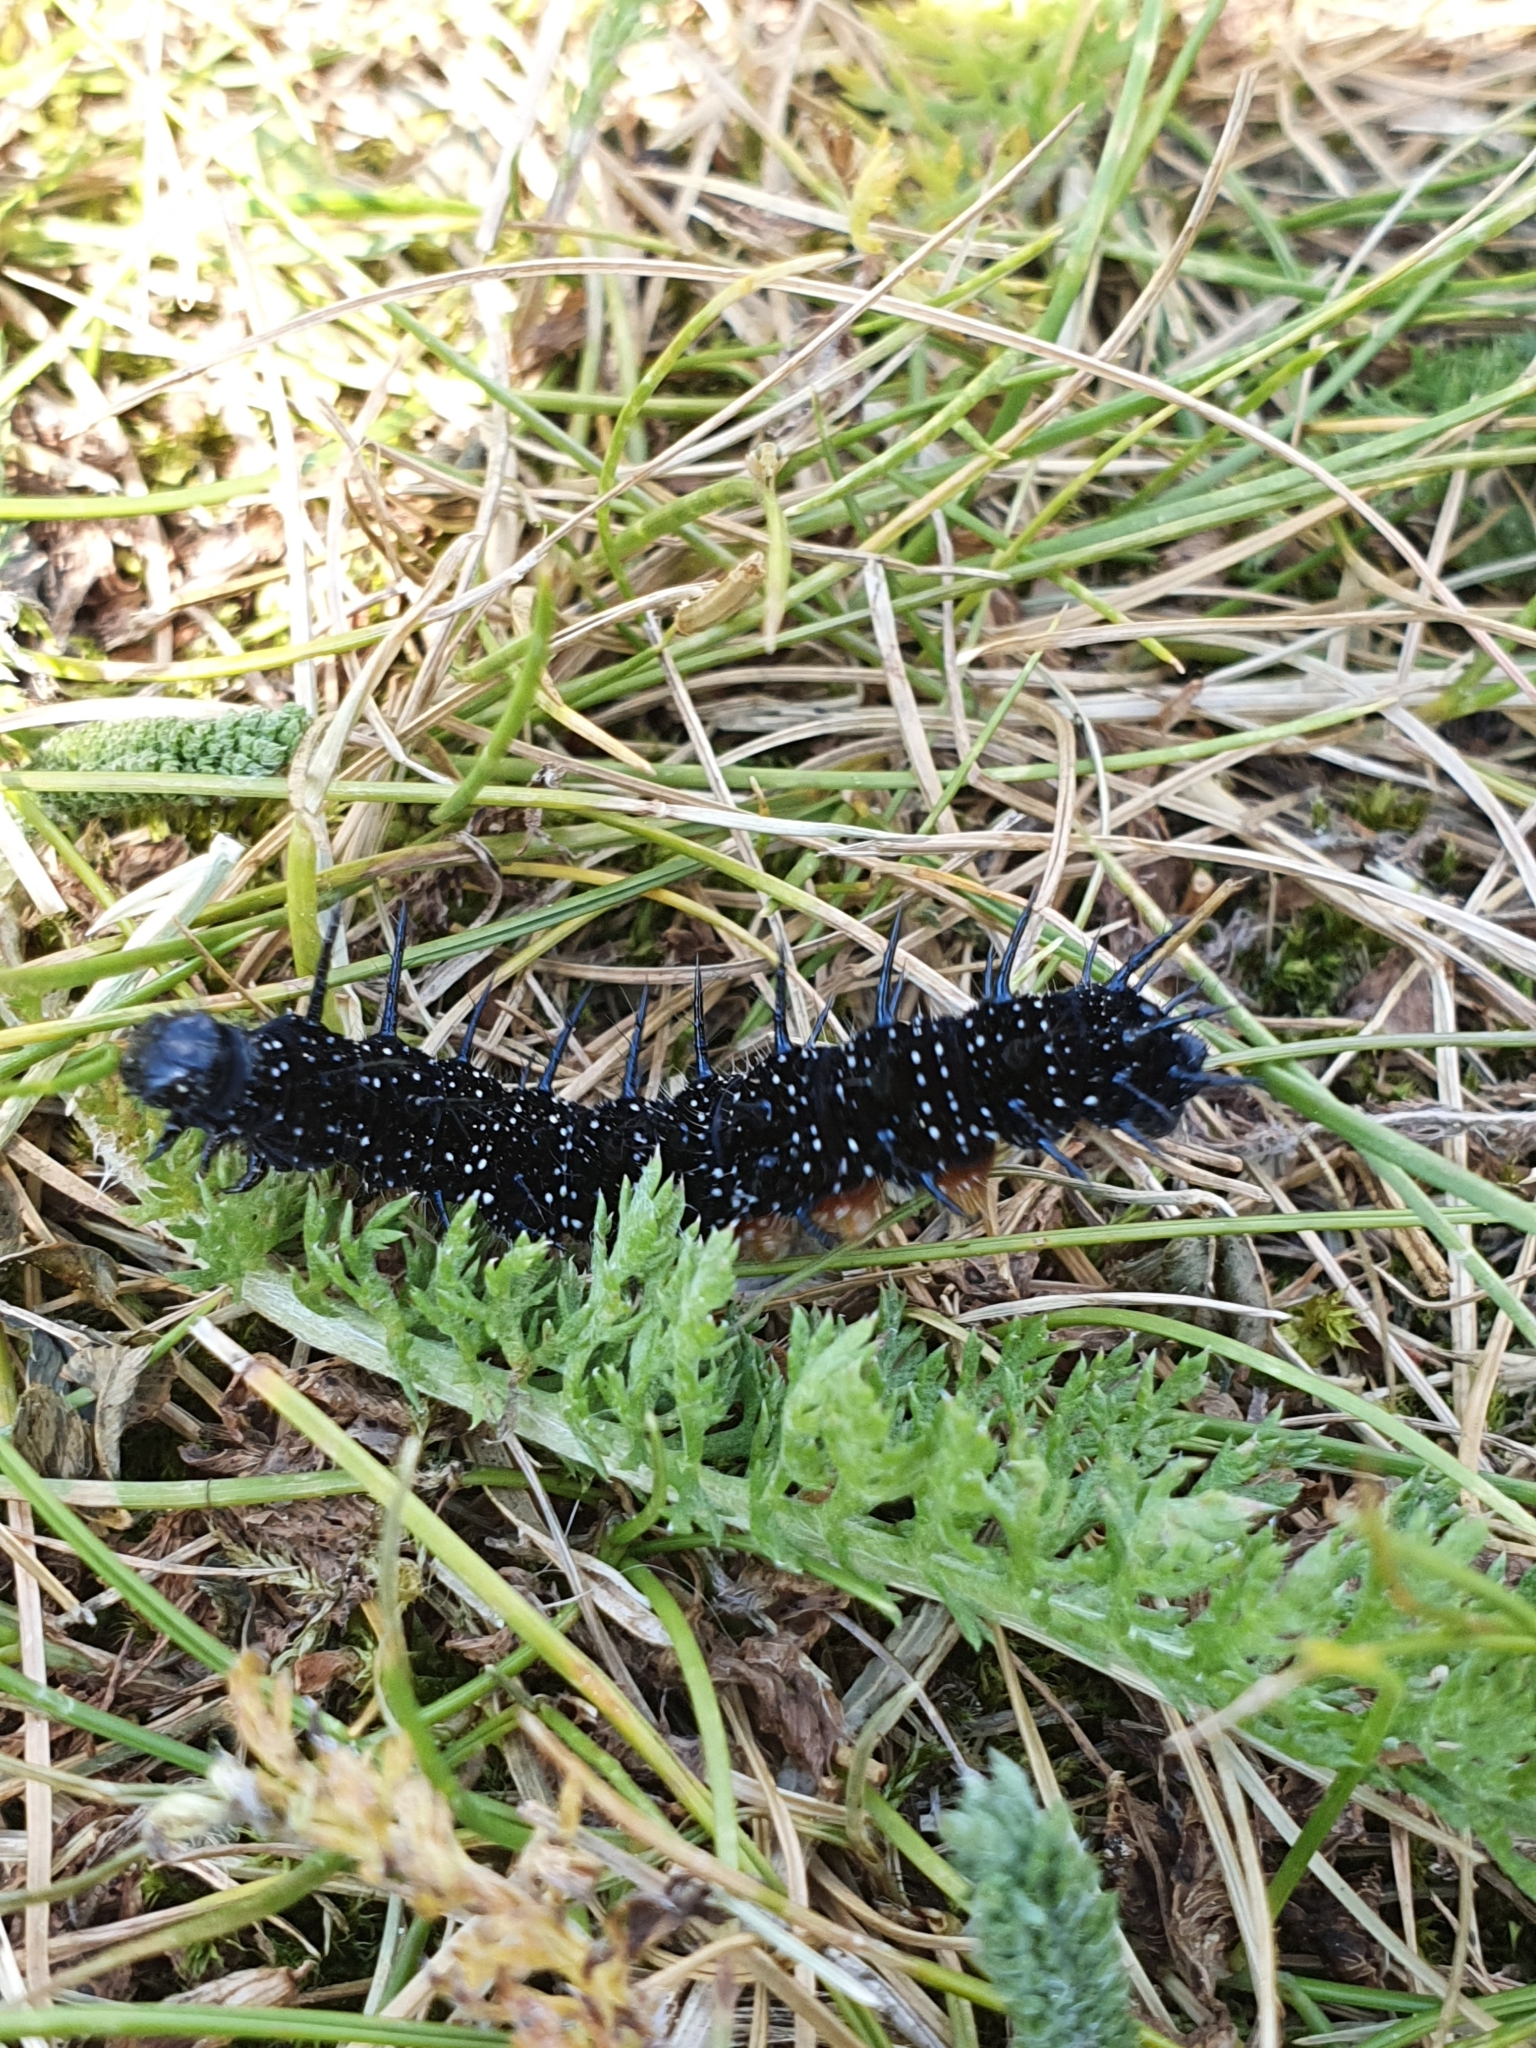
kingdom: Animalia
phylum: Arthropoda
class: Insecta
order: Lepidoptera
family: Nymphalidae
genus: Aglais
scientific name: Aglais io
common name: Peacock
